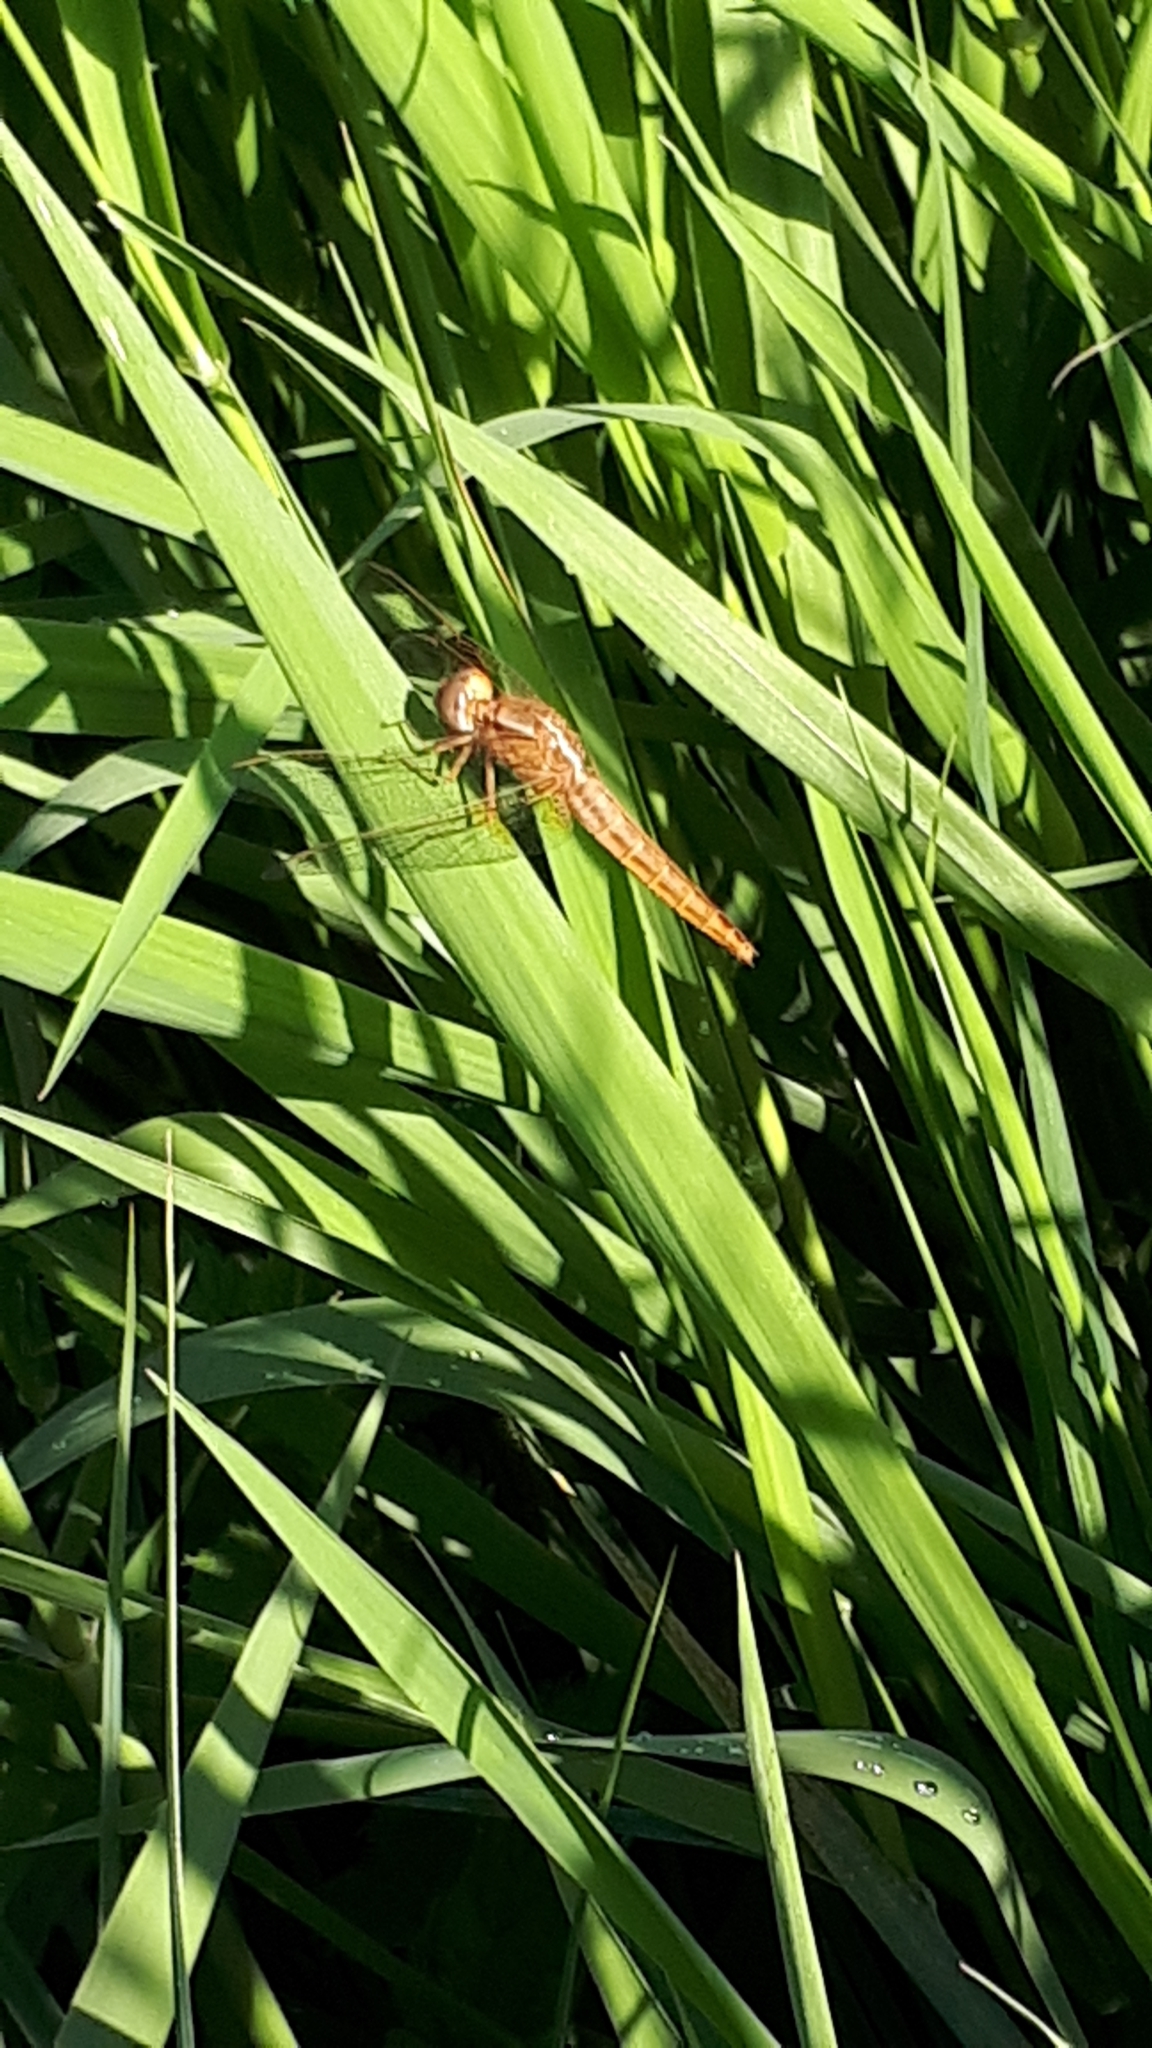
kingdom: Animalia
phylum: Arthropoda
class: Insecta
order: Odonata
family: Libellulidae
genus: Crocothemis
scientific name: Crocothemis erythraea
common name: Scarlet dragonfly
